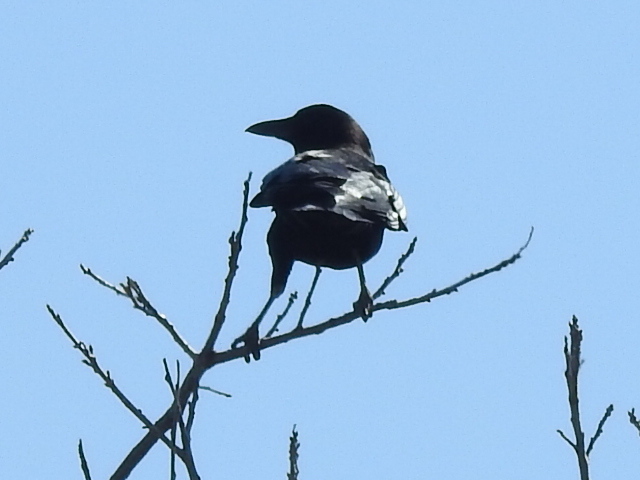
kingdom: Animalia
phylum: Chordata
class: Aves
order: Passeriformes
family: Corvidae
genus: Corvus
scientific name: Corvus brachyrhynchos
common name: American crow
